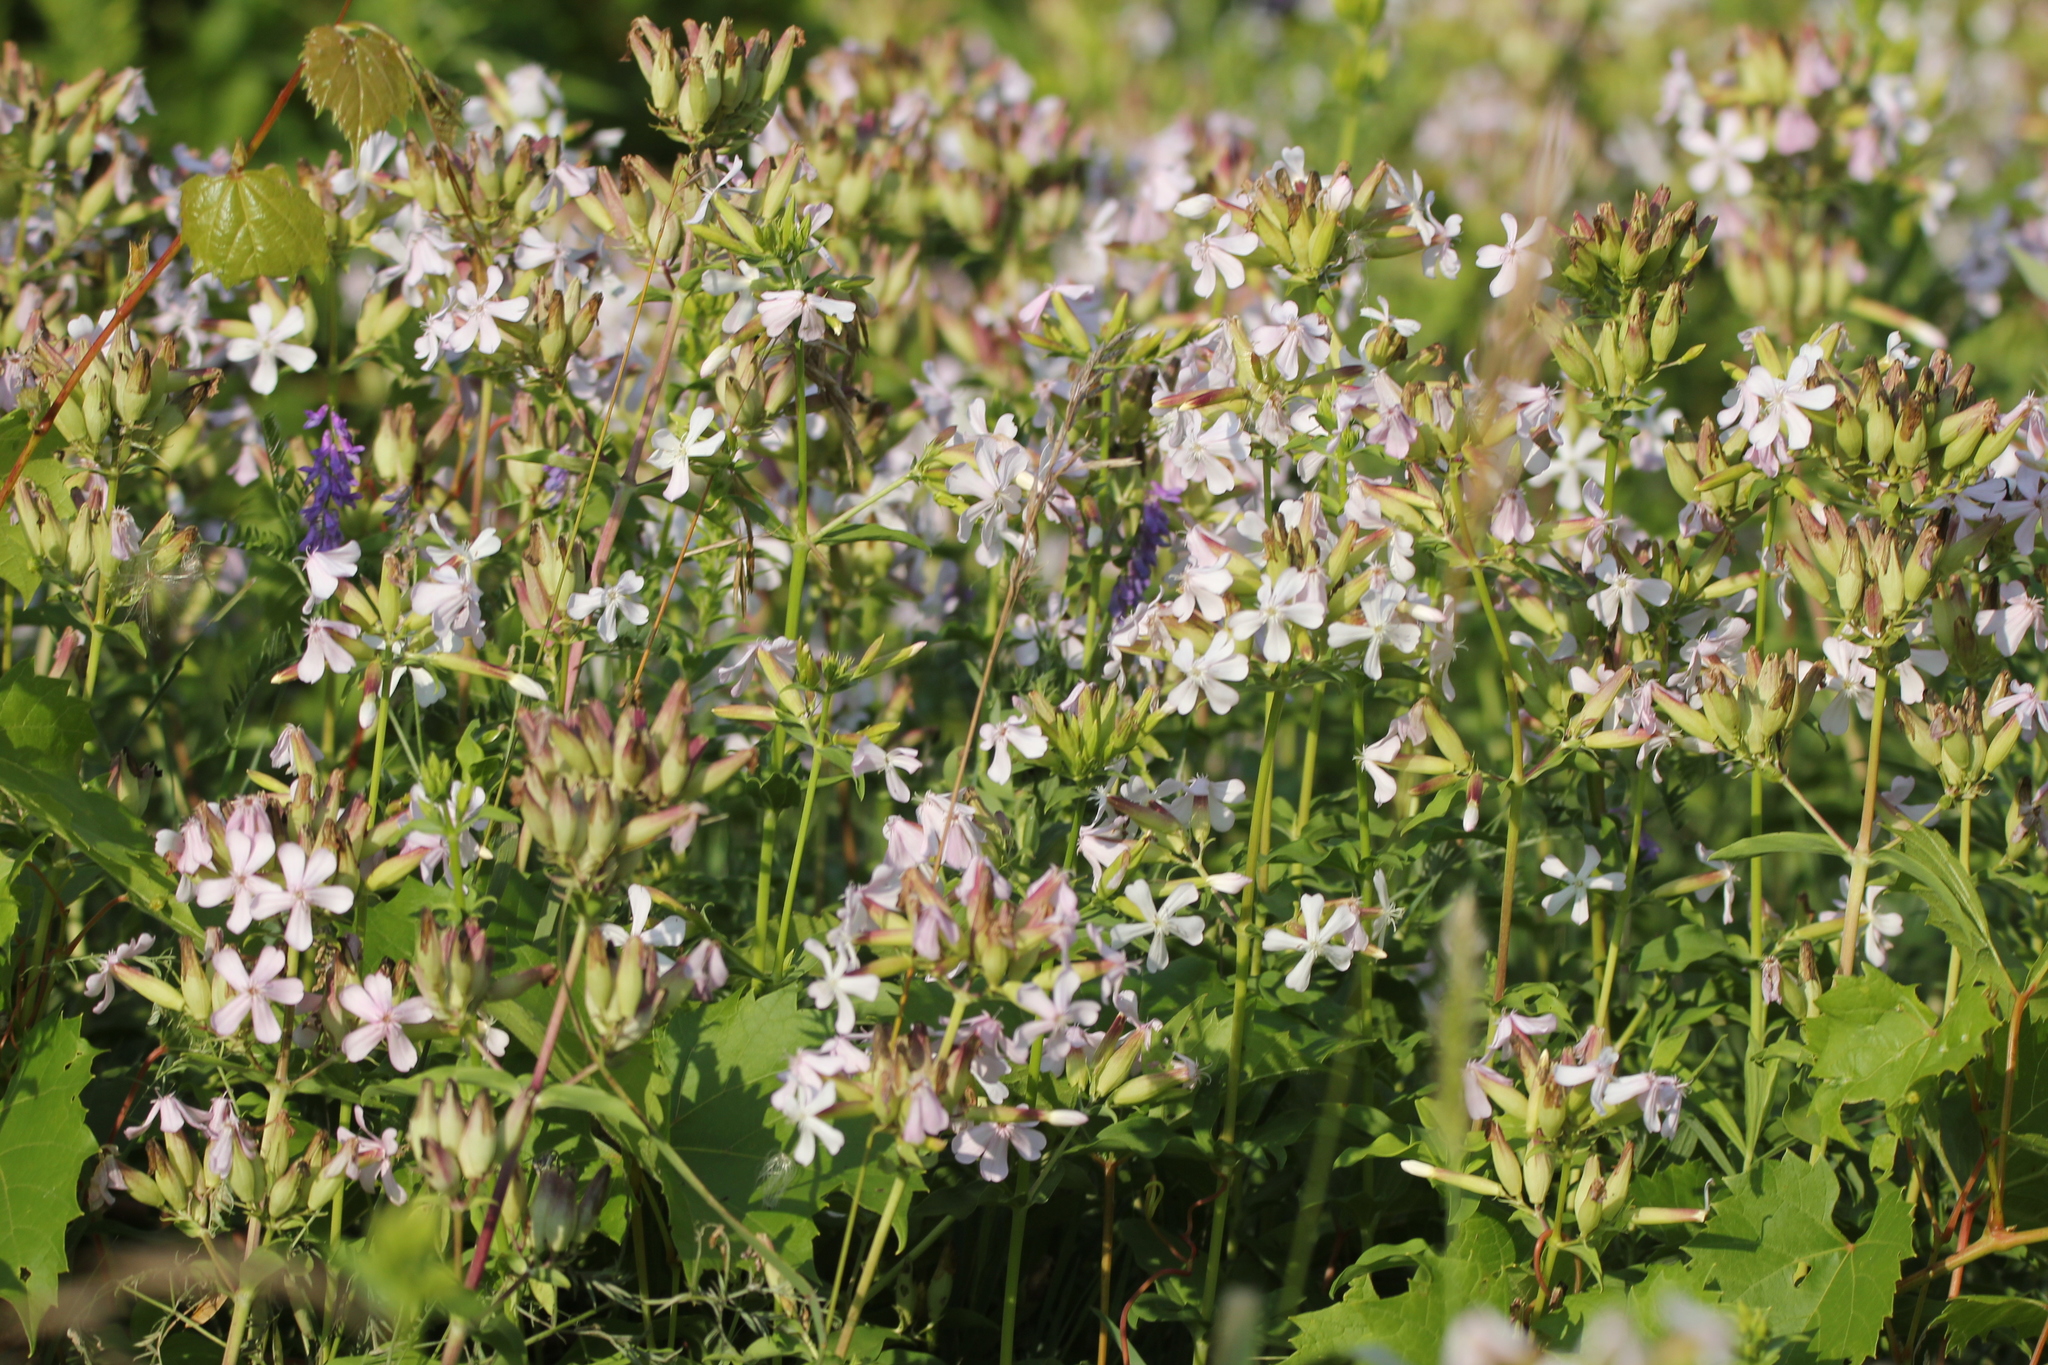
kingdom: Plantae
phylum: Tracheophyta
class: Magnoliopsida
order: Caryophyllales
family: Caryophyllaceae
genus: Saponaria
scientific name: Saponaria officinalis
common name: Soapwort
